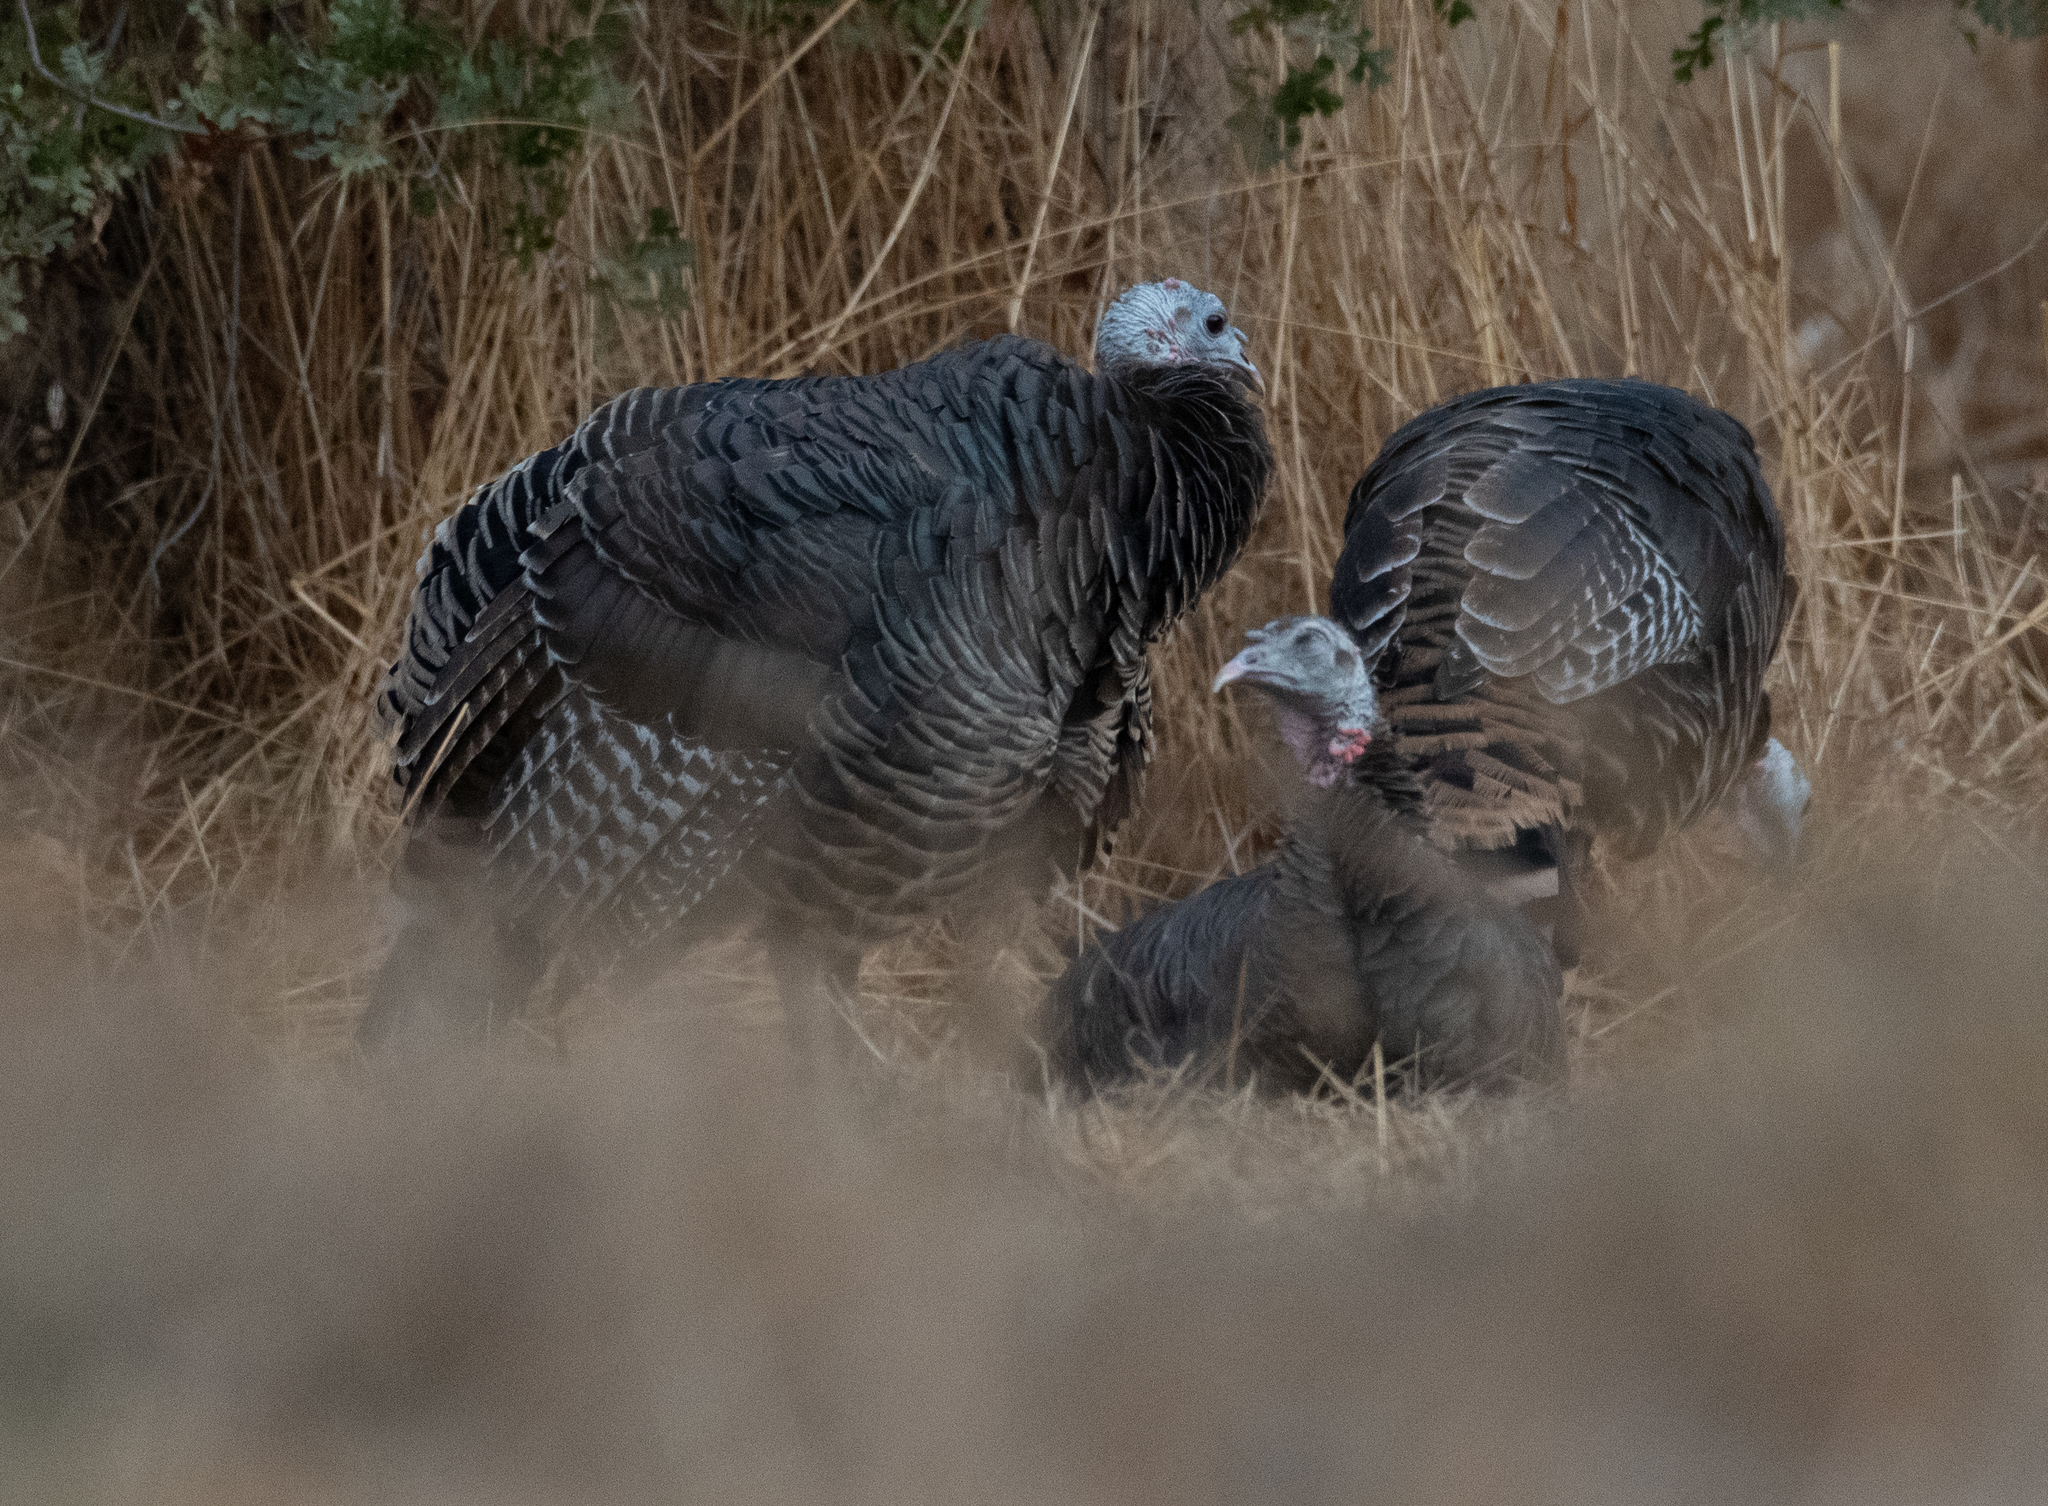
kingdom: Animalia
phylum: Chordata
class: Aves
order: Galliformes
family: Phasianidae
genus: Meleagris
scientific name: Meleagris gallopavo
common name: Wild turkey
